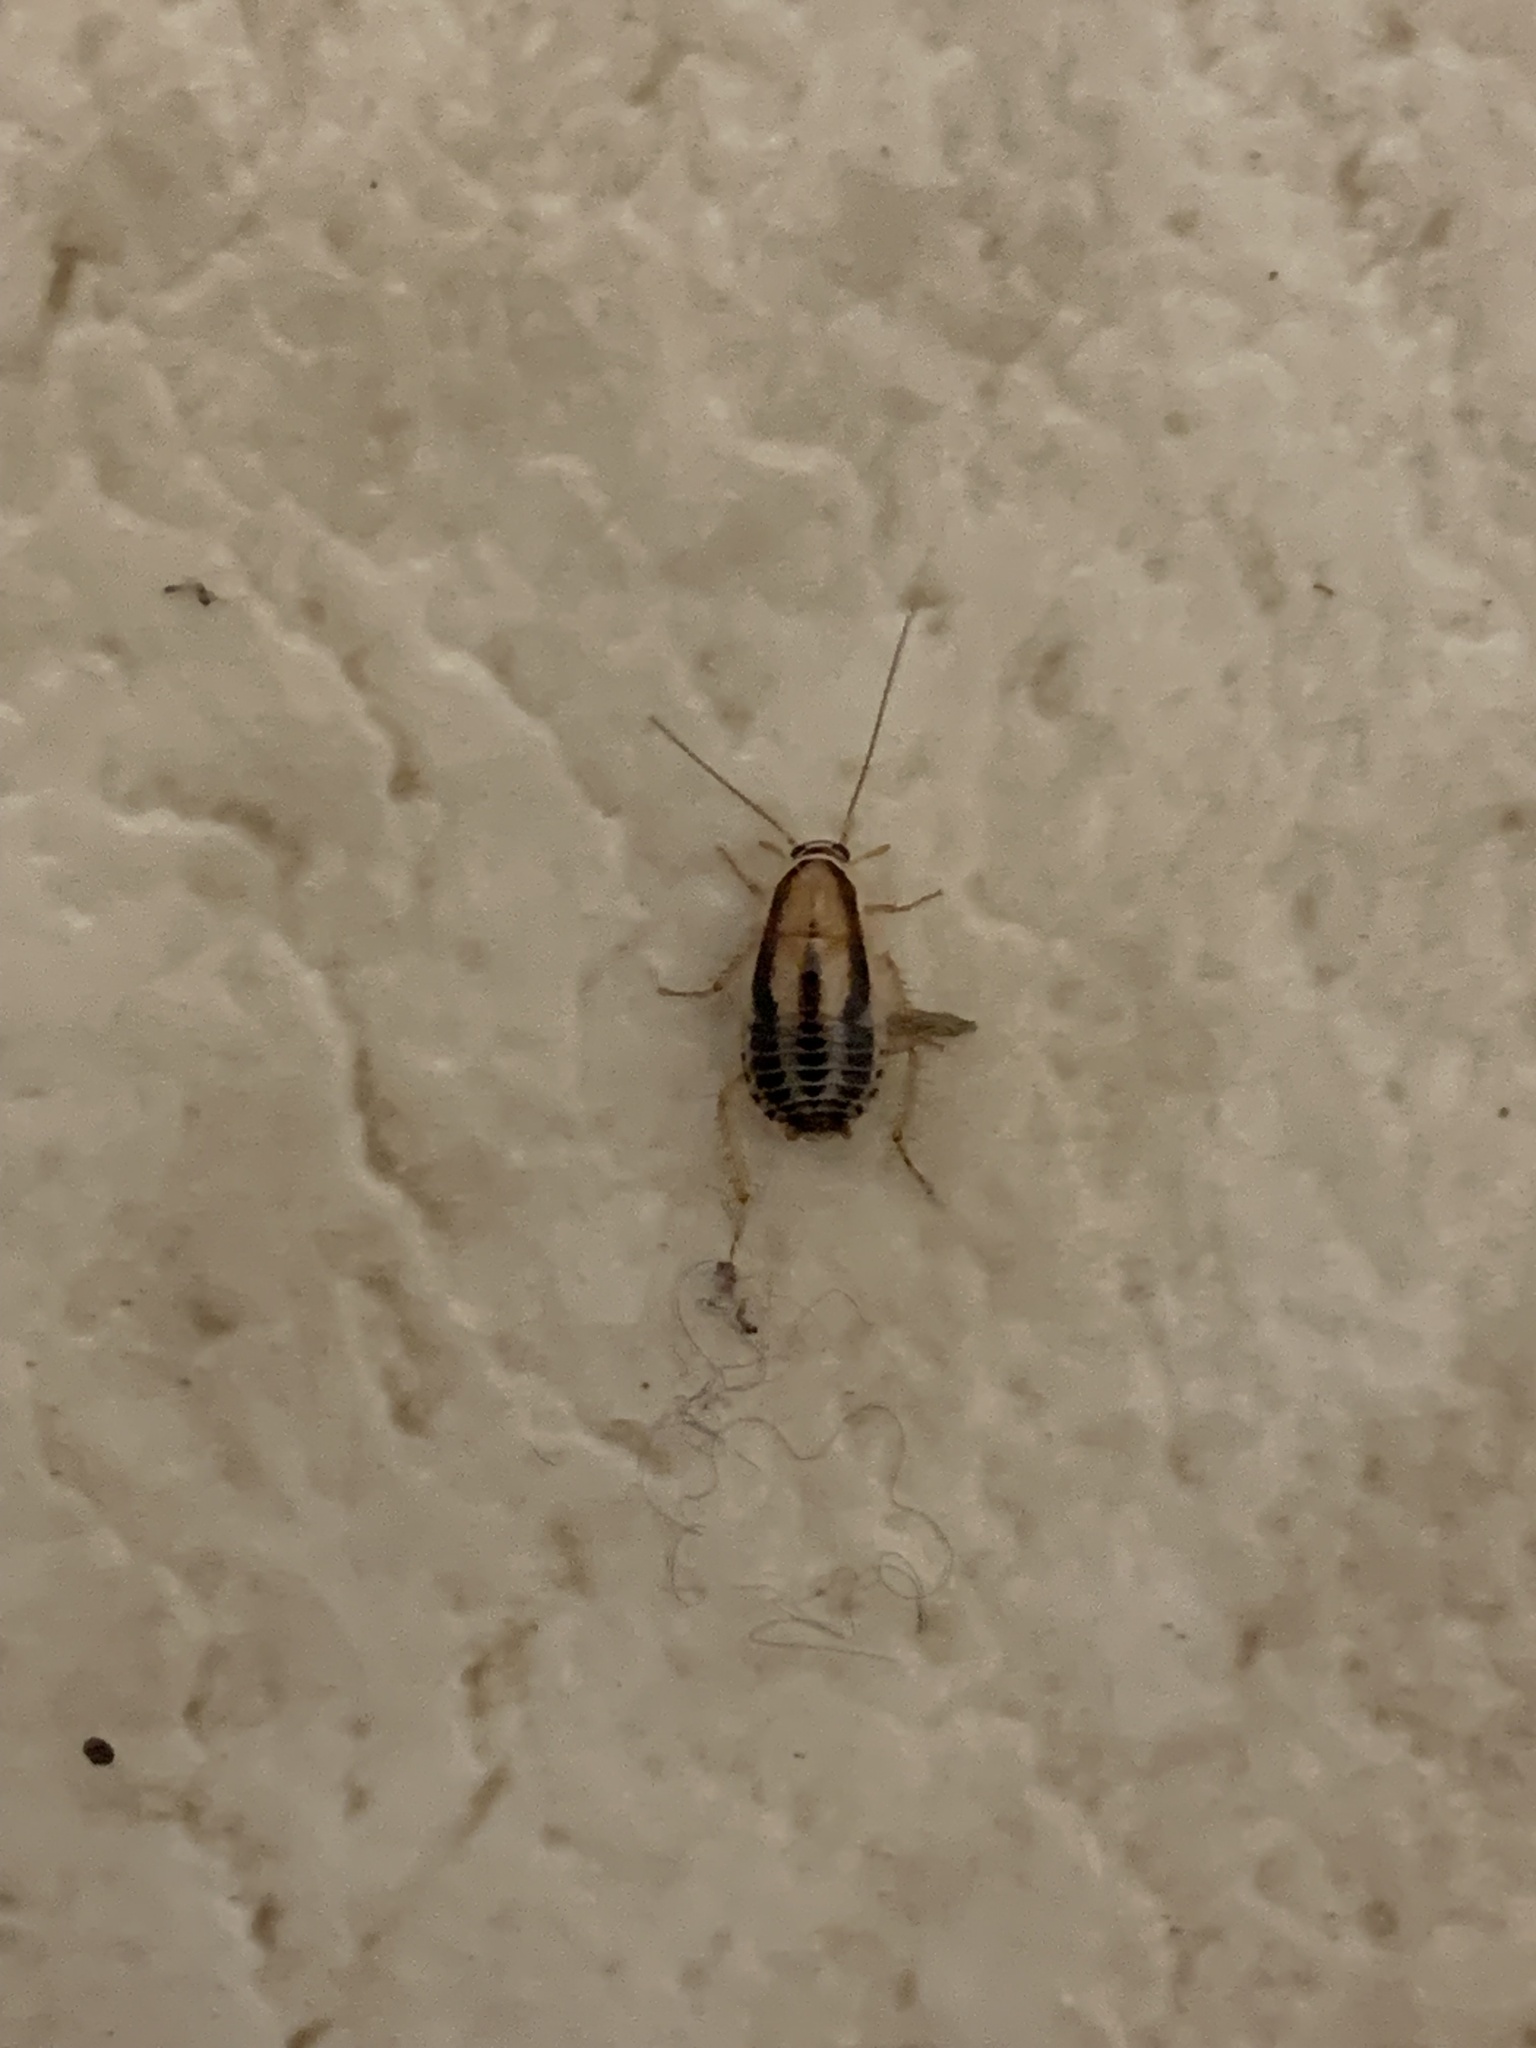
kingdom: Animalia
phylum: Arthropoda
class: Insecta
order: Blattodea
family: Ectobiidae
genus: Luridiblatta
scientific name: Luridiblatta trivittata
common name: Three-lined cockroach
